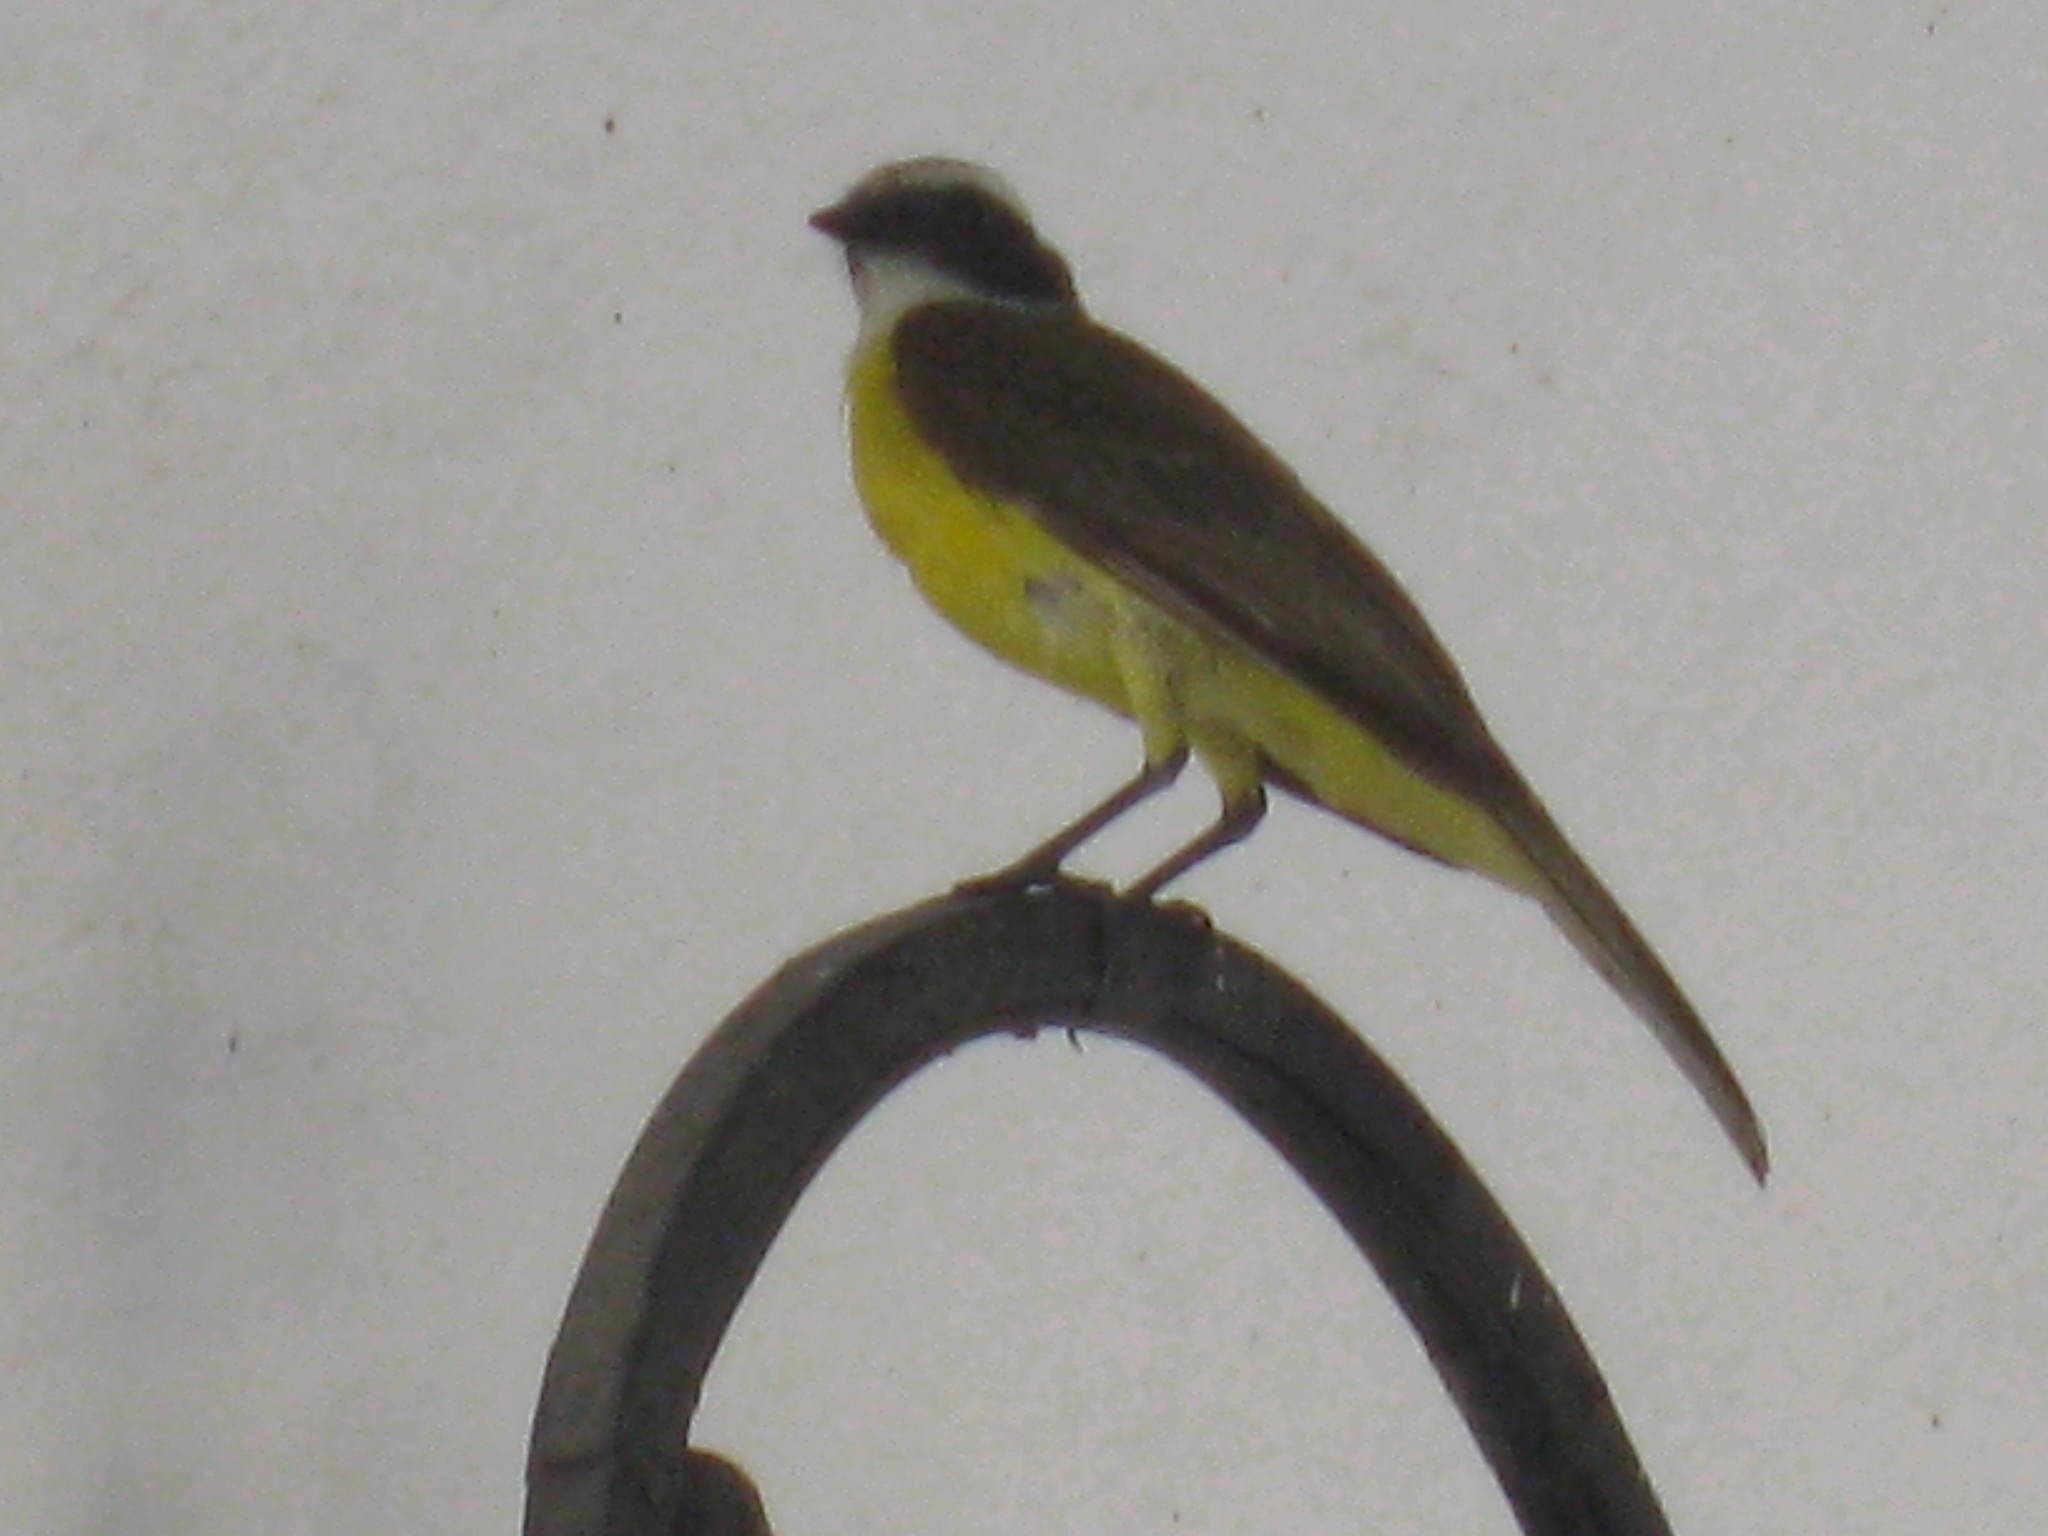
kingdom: Animalia
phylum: Chordata
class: Aves
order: Passeriformes
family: Tyrannidae
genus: Myiozetetes
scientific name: Myiozetetes similis
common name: Social flycatcher
